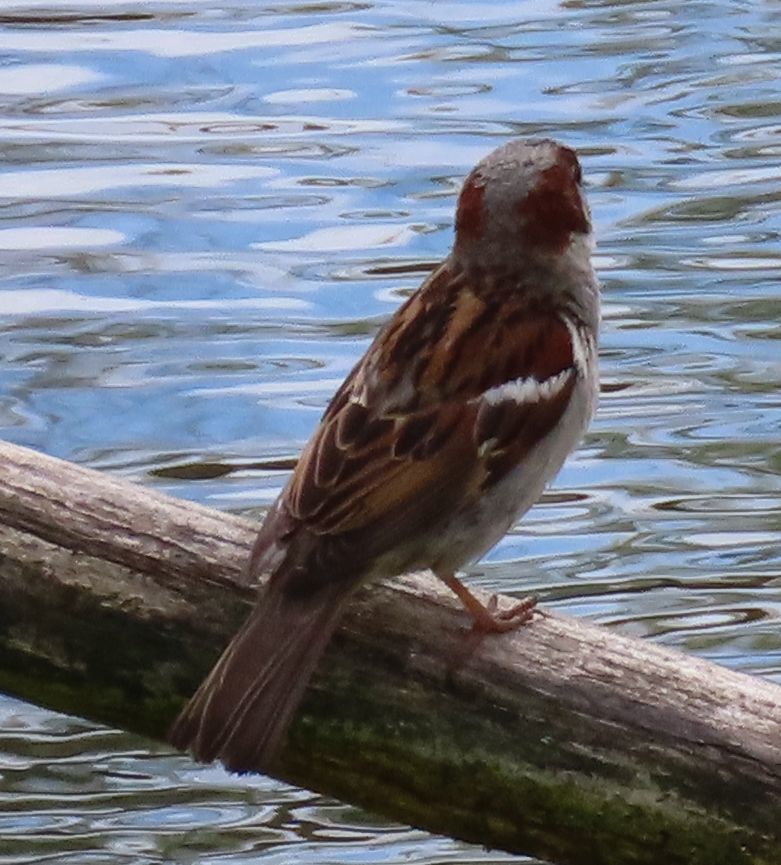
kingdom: Animalia
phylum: Chordata
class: Aves
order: Passeriformes
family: Passeridae
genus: Passer
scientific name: Passer domesticus
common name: House sparrow
